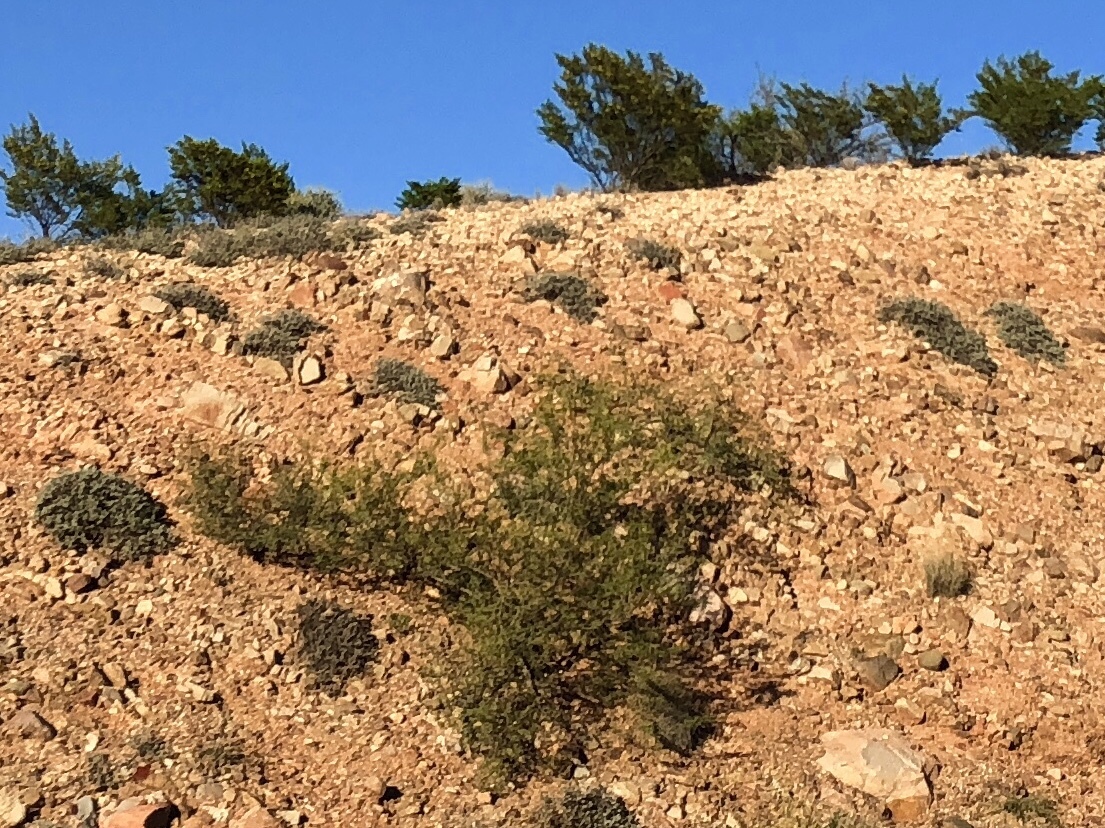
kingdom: Plantae
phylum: Tracheophyta
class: Magnoliopsida
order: Zygophyllales
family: Zygophyllaceae
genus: Larrea
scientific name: Larrea tridentata
